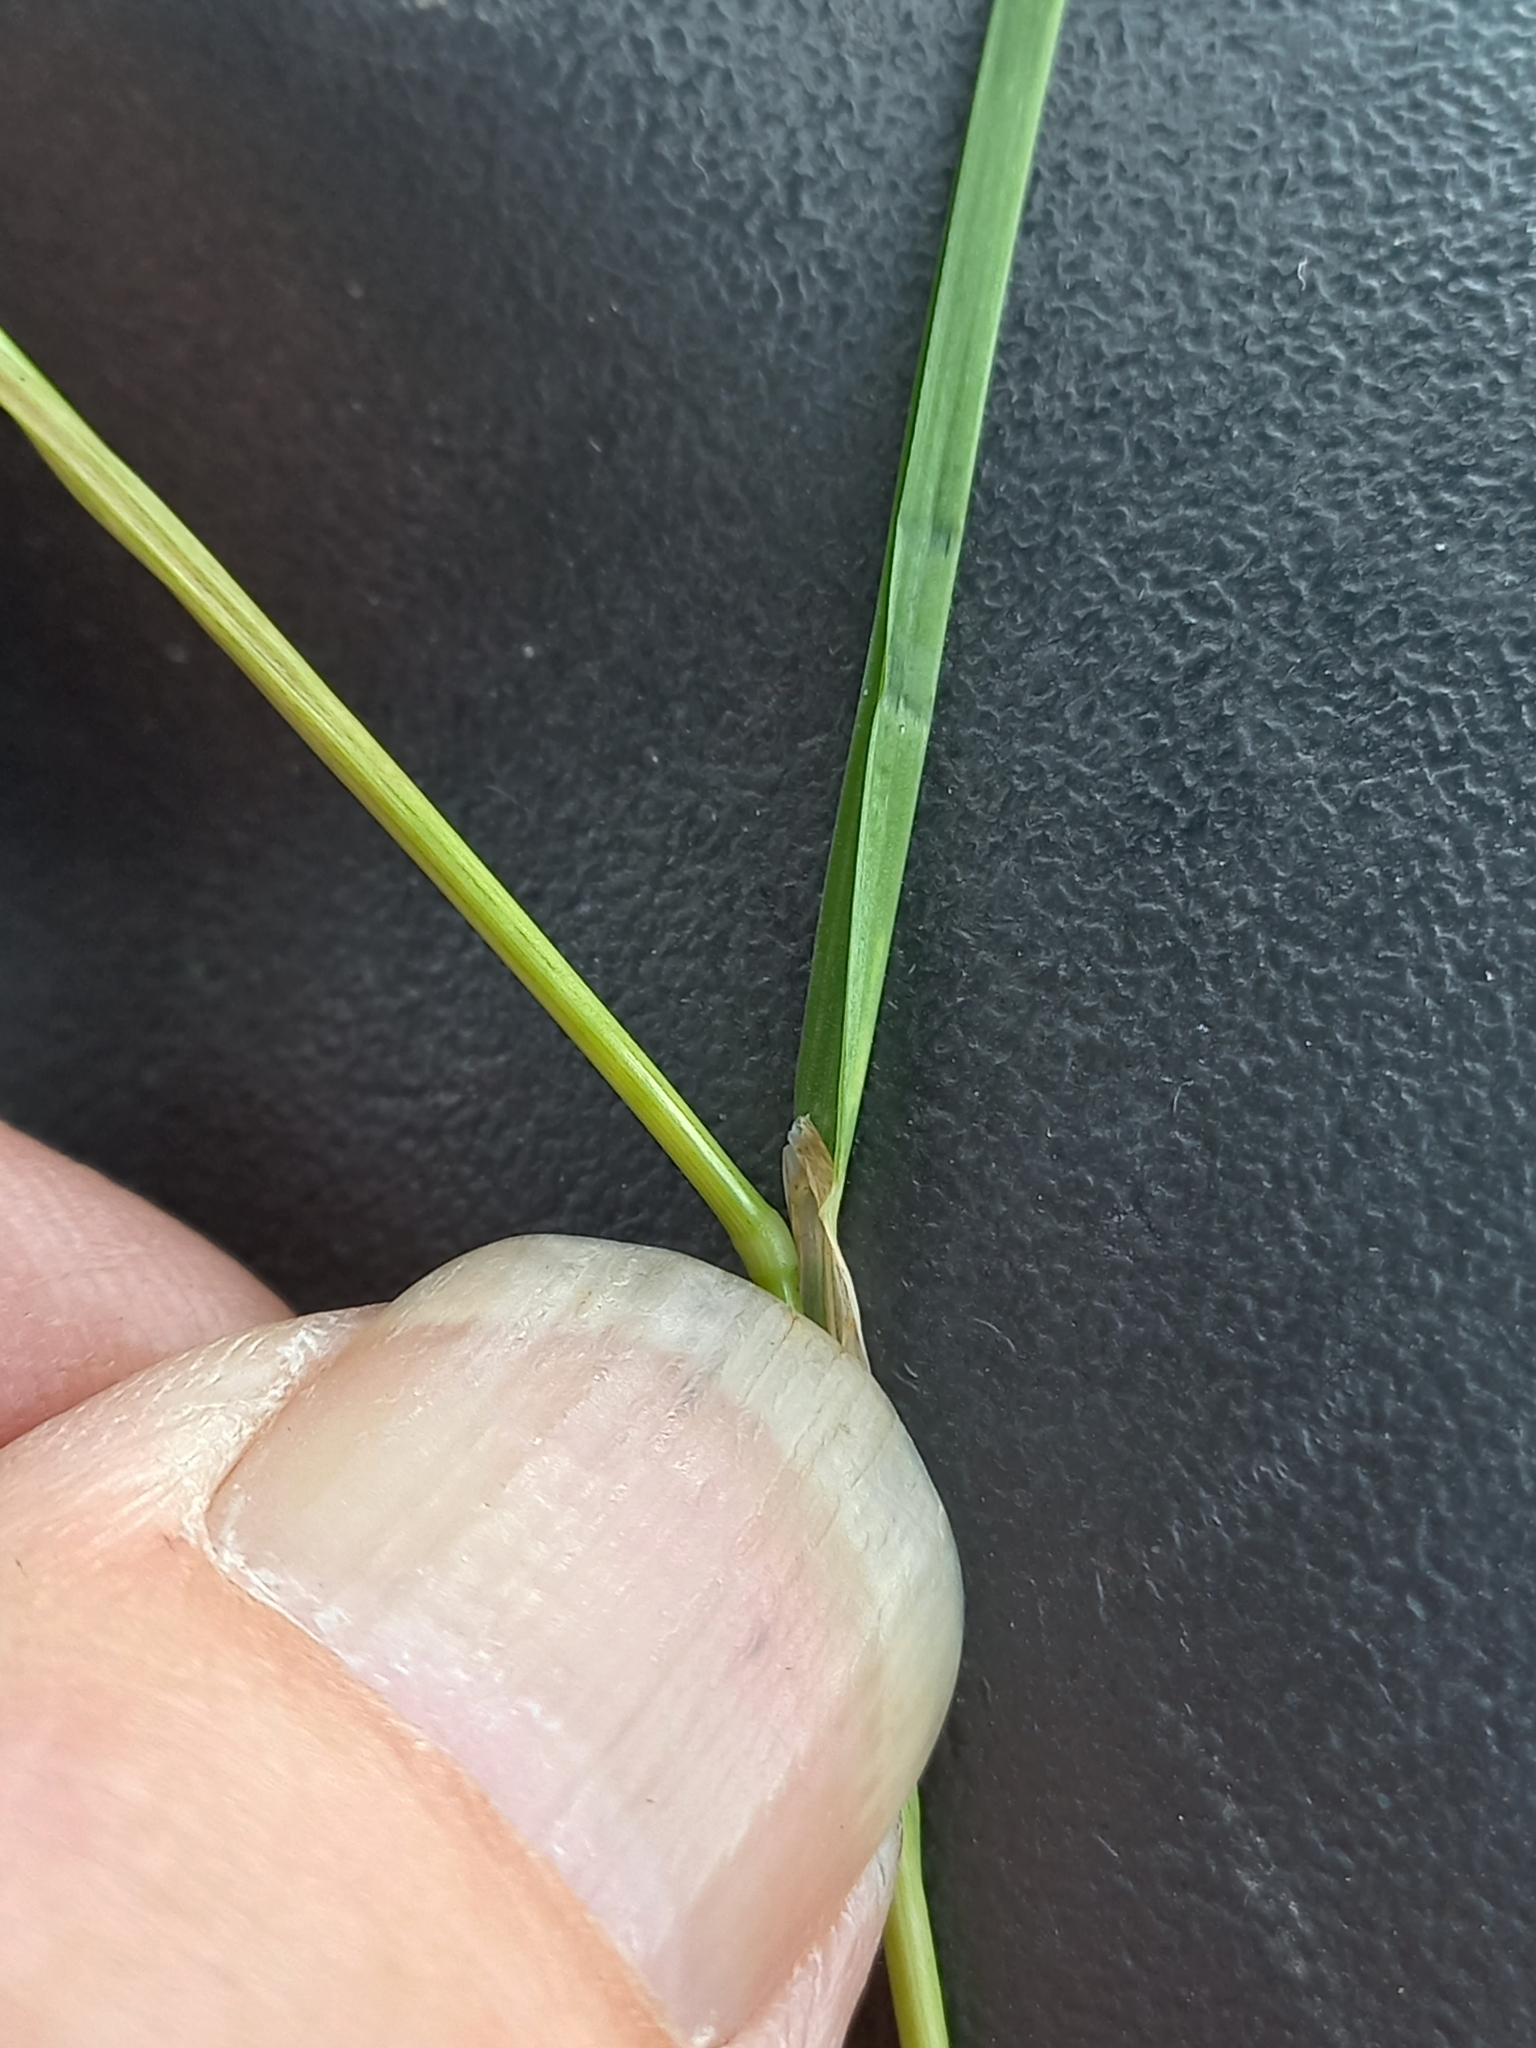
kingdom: Plantae
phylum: Tracheophyta
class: Liliopsida
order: Poales
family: Poaceae
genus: Poa
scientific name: Poa trivialis
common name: Rough bluegrass
